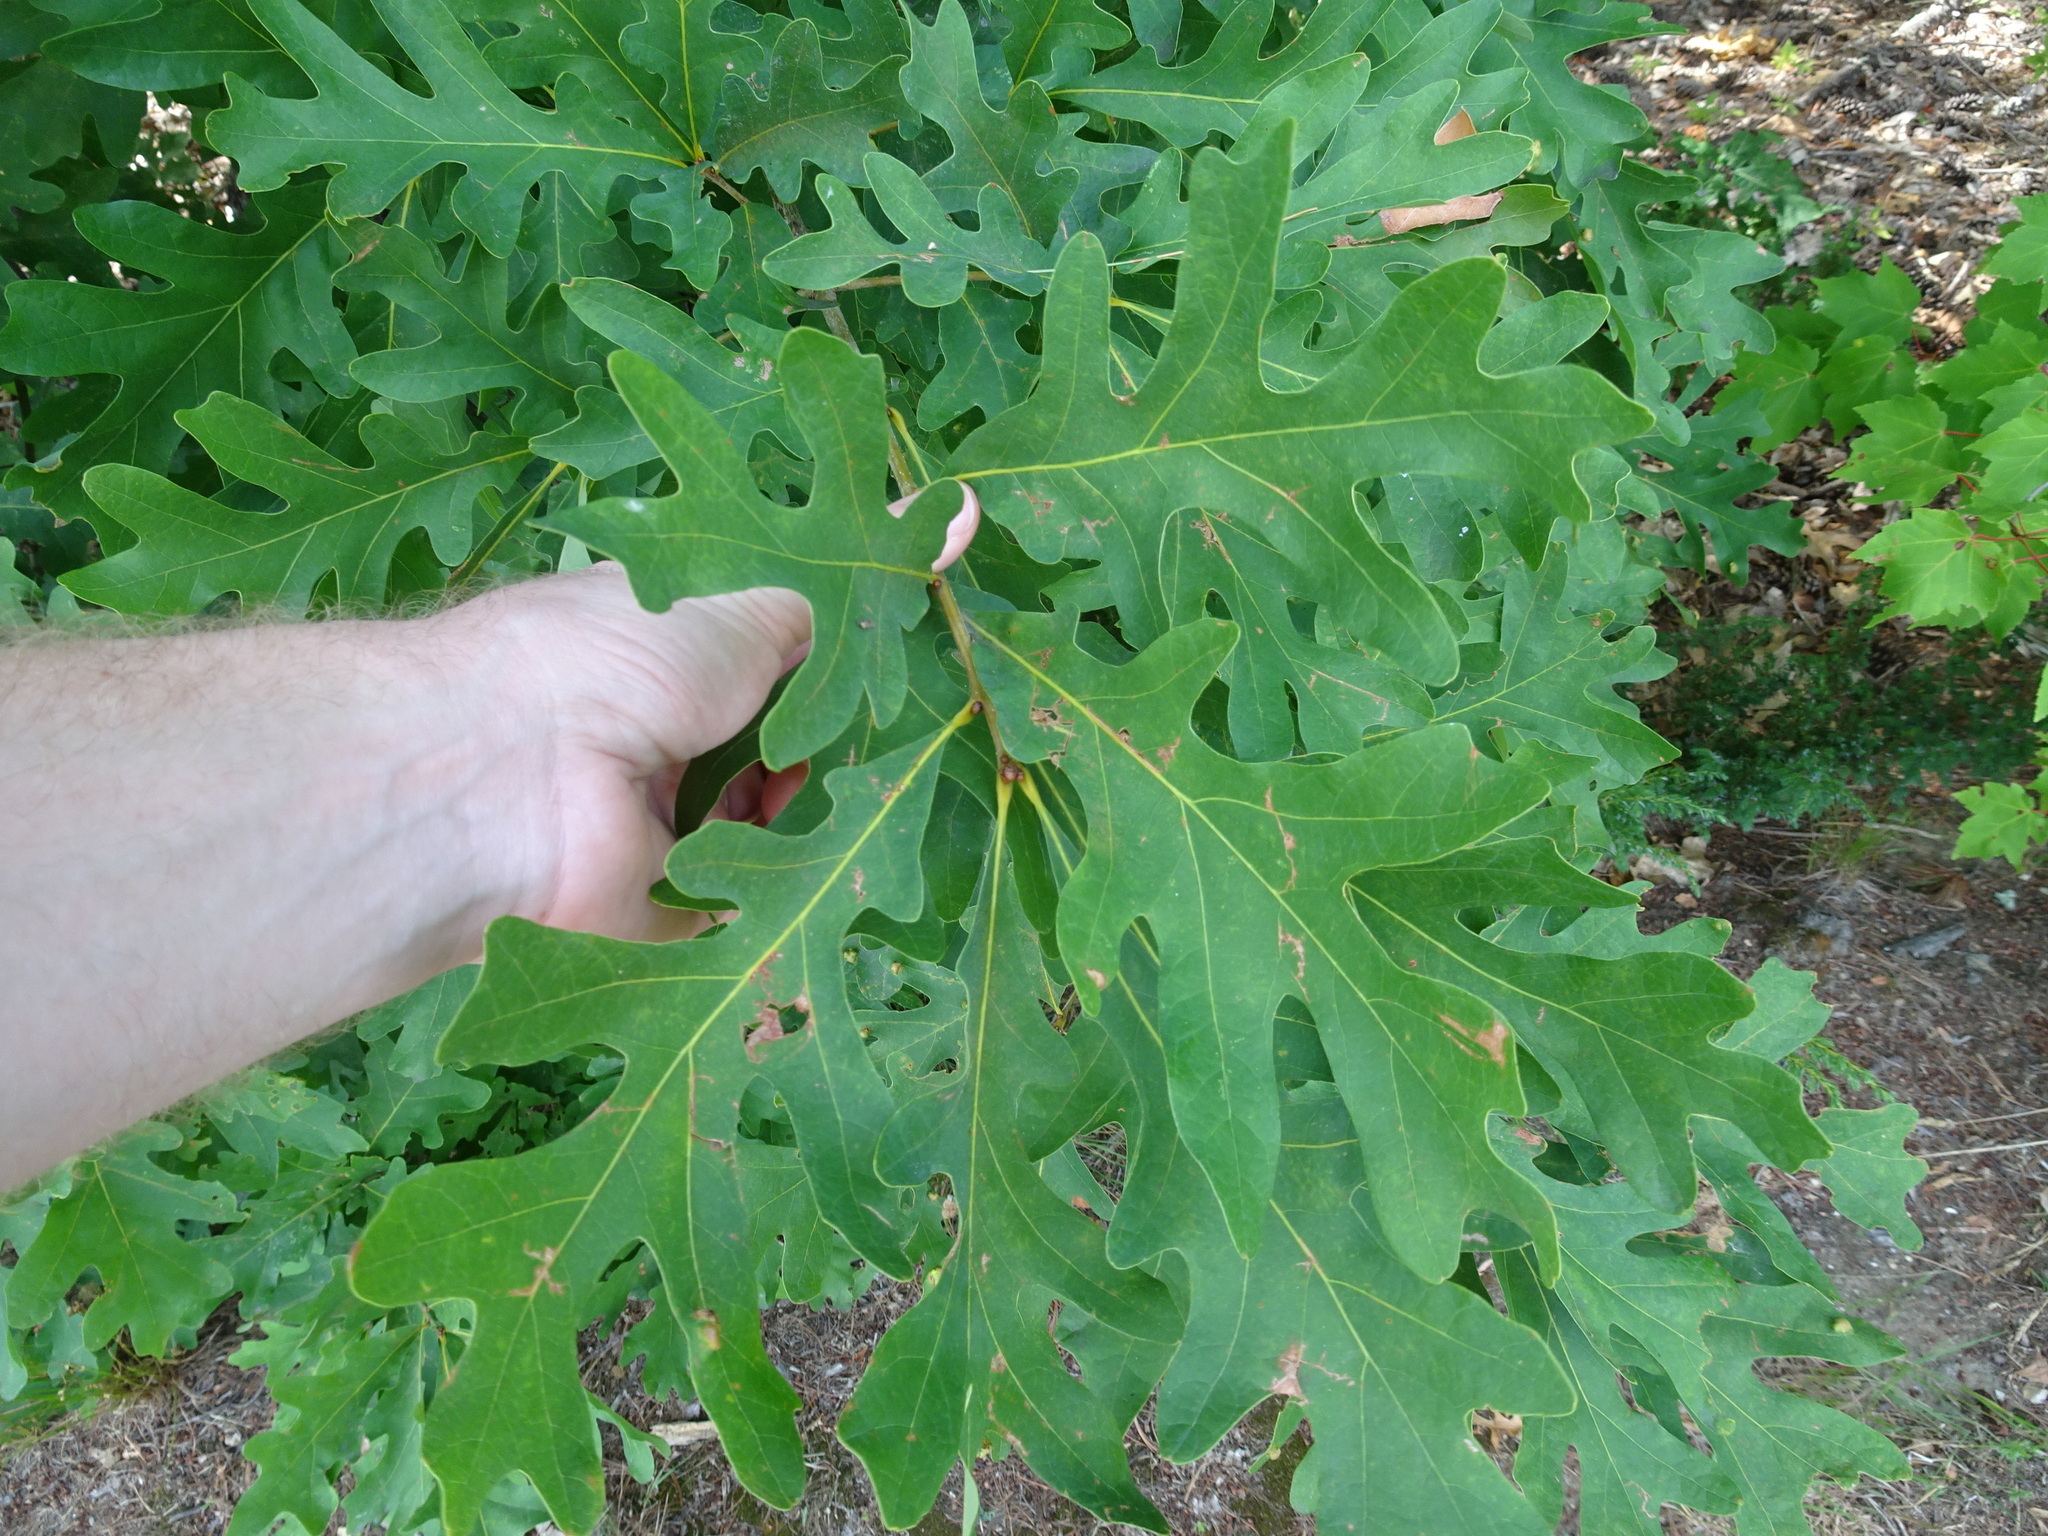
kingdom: Plantae
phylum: Tracheophyta
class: Magnoliopsida
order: Fagales
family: Fagaceae
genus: Quercus
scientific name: Quercus alba
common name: White oak
